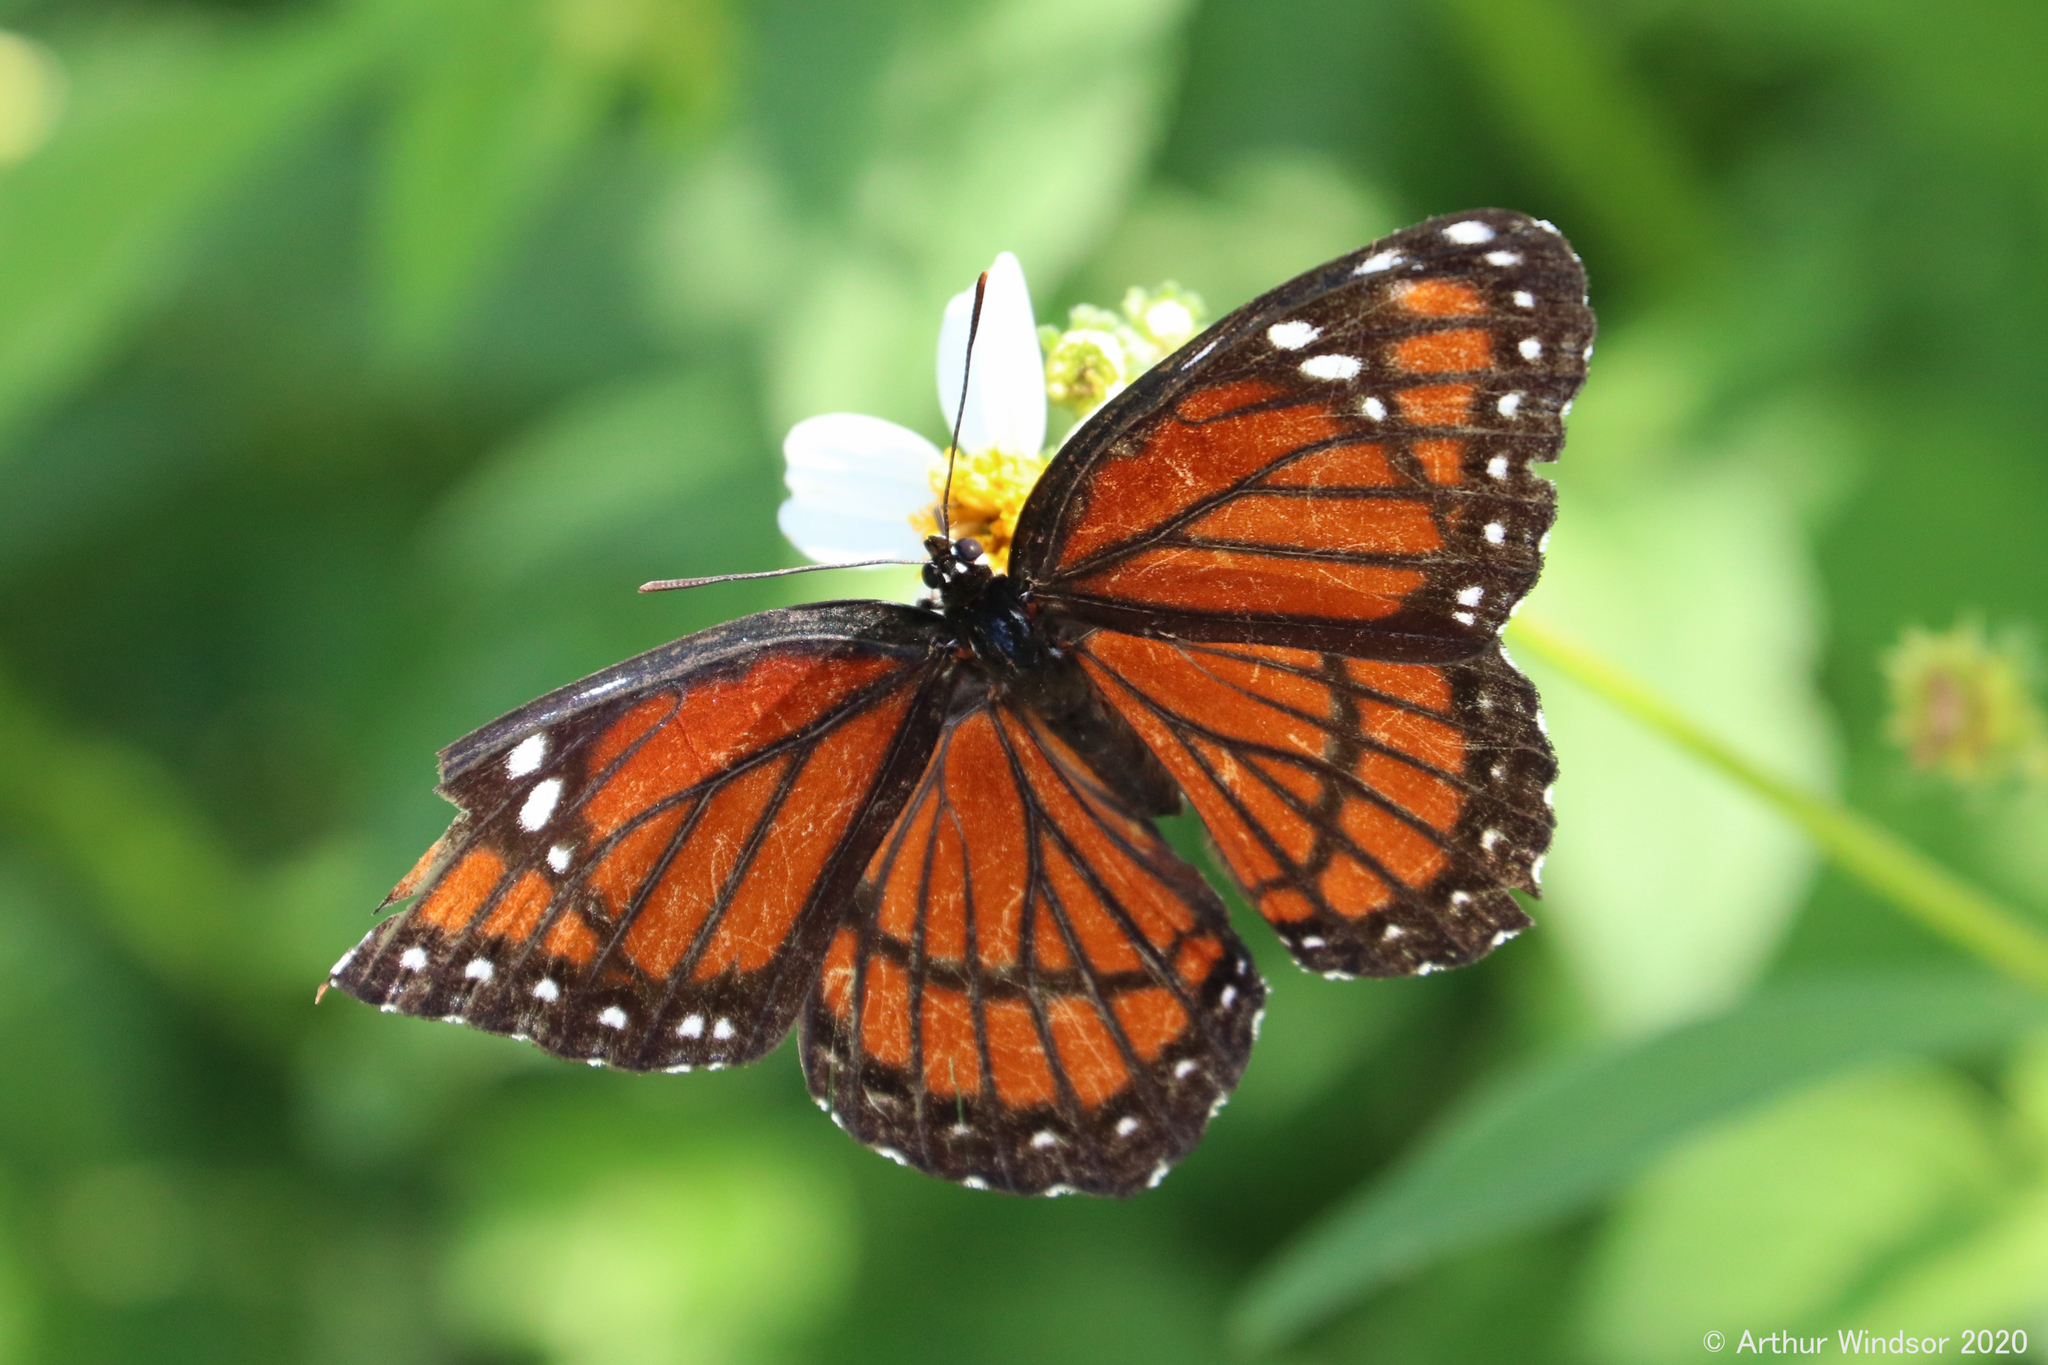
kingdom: Animalia
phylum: Arthropoda
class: Insecta
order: Lepidoptera
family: Nymphalidae
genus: Limenitis
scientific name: Limenitis archippus
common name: Viceroy
